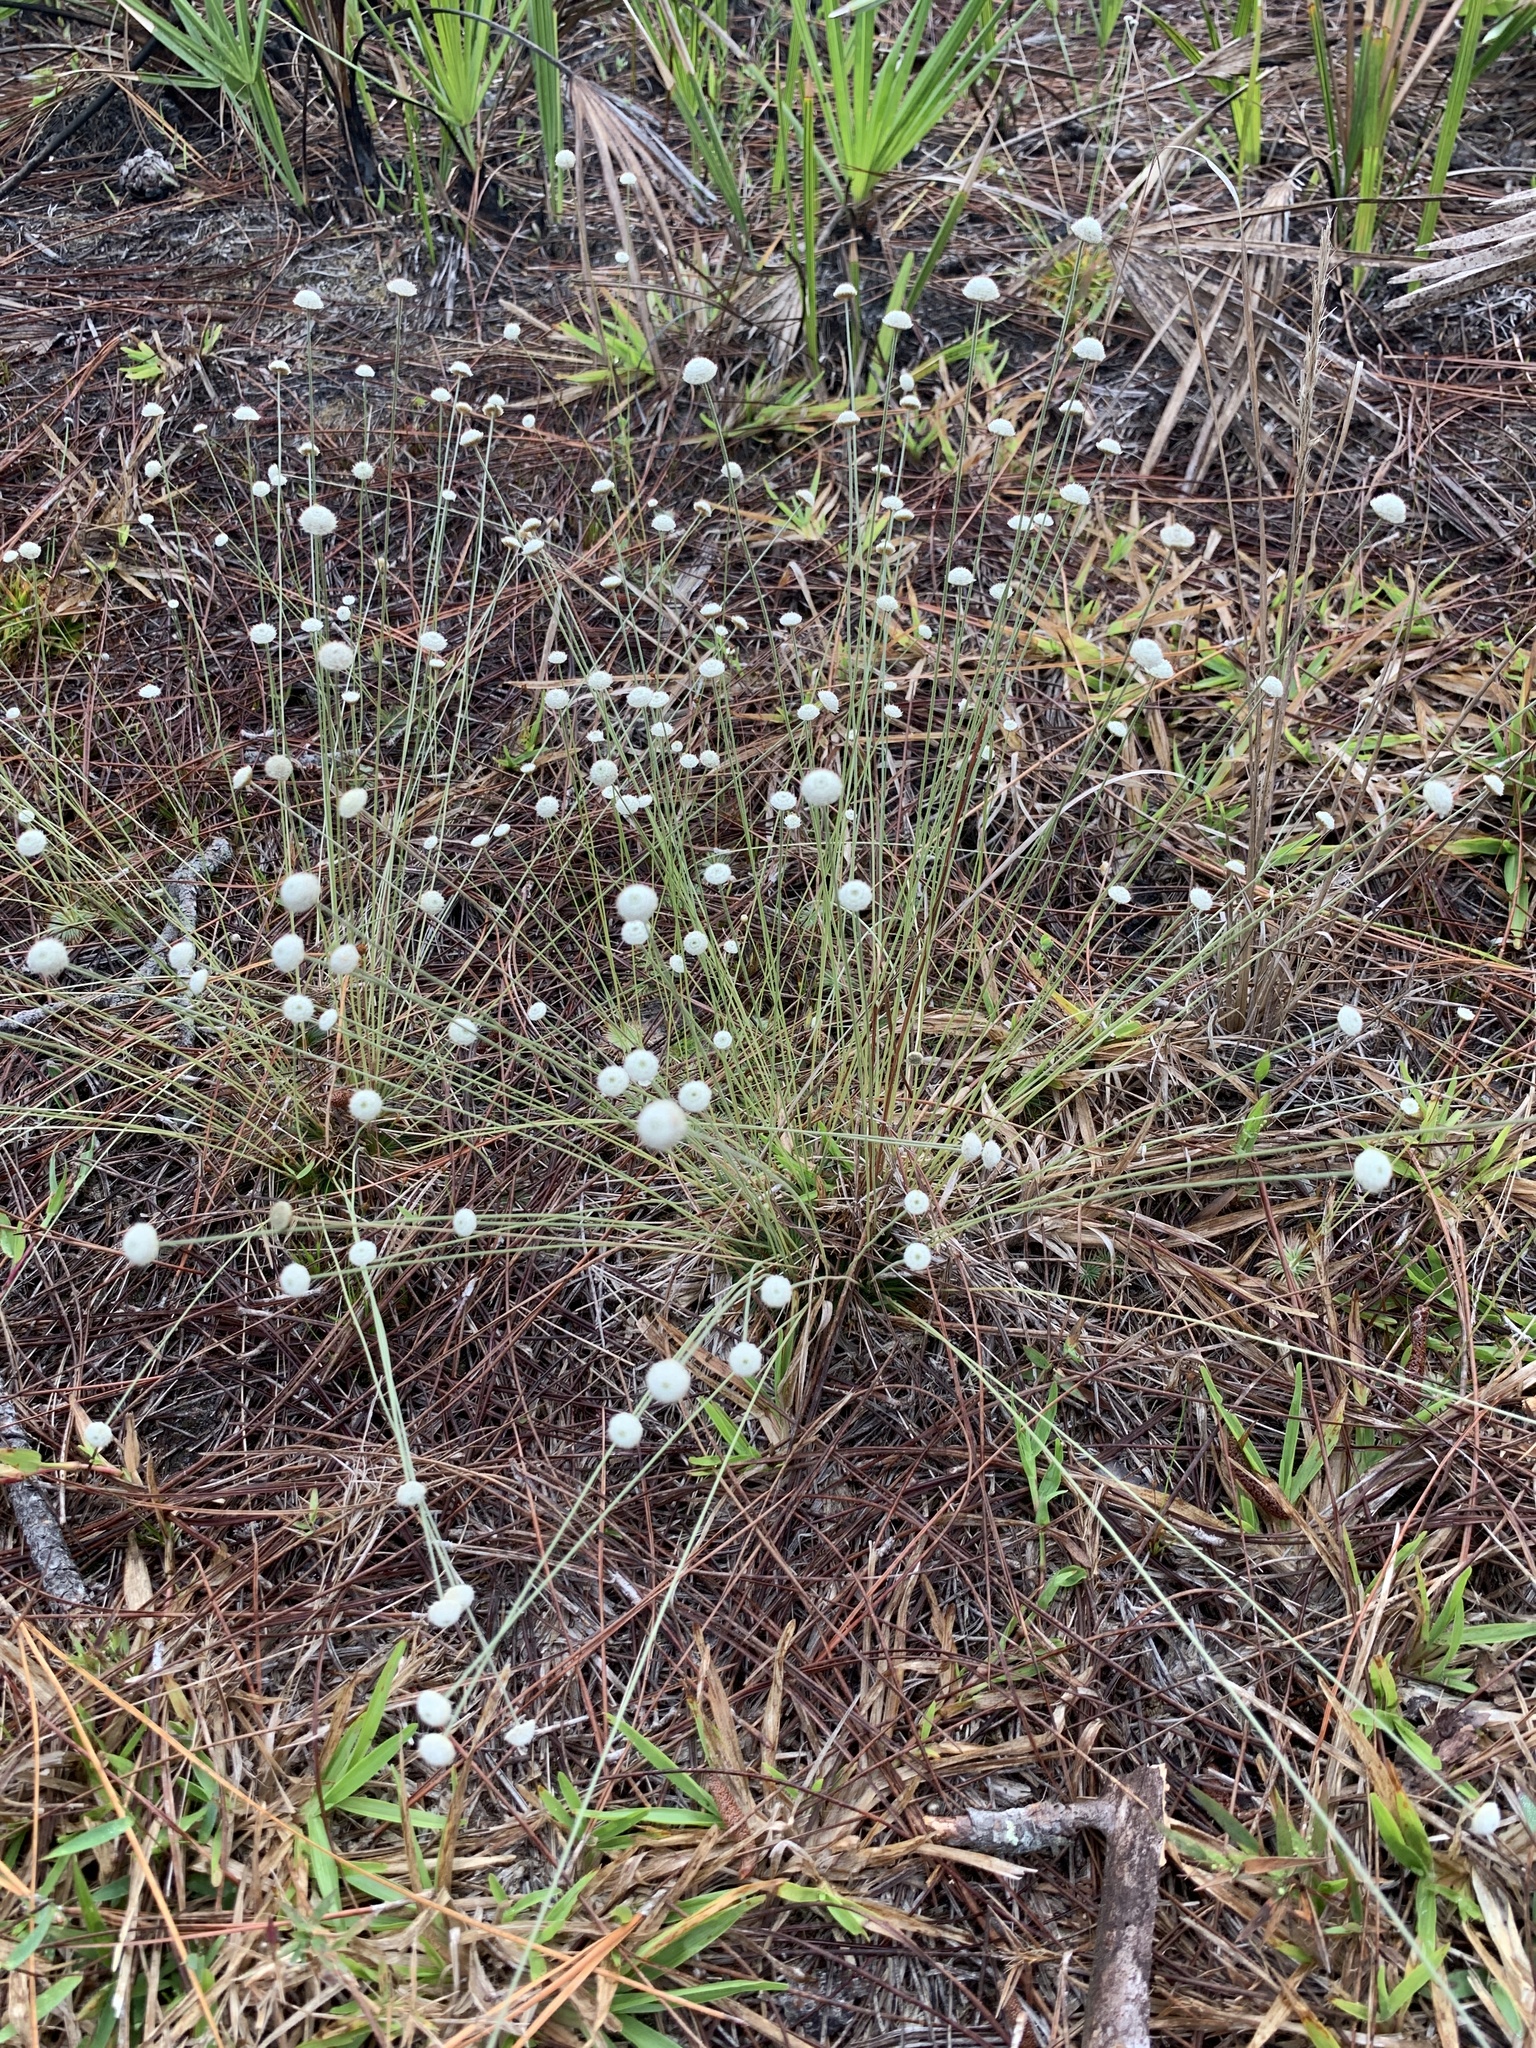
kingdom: Plantae
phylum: Tracheophyta
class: Liliopsida
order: Poales
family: Eriocaulaceae
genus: Syngonanthus
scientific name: Syngonanthus flavidulus
